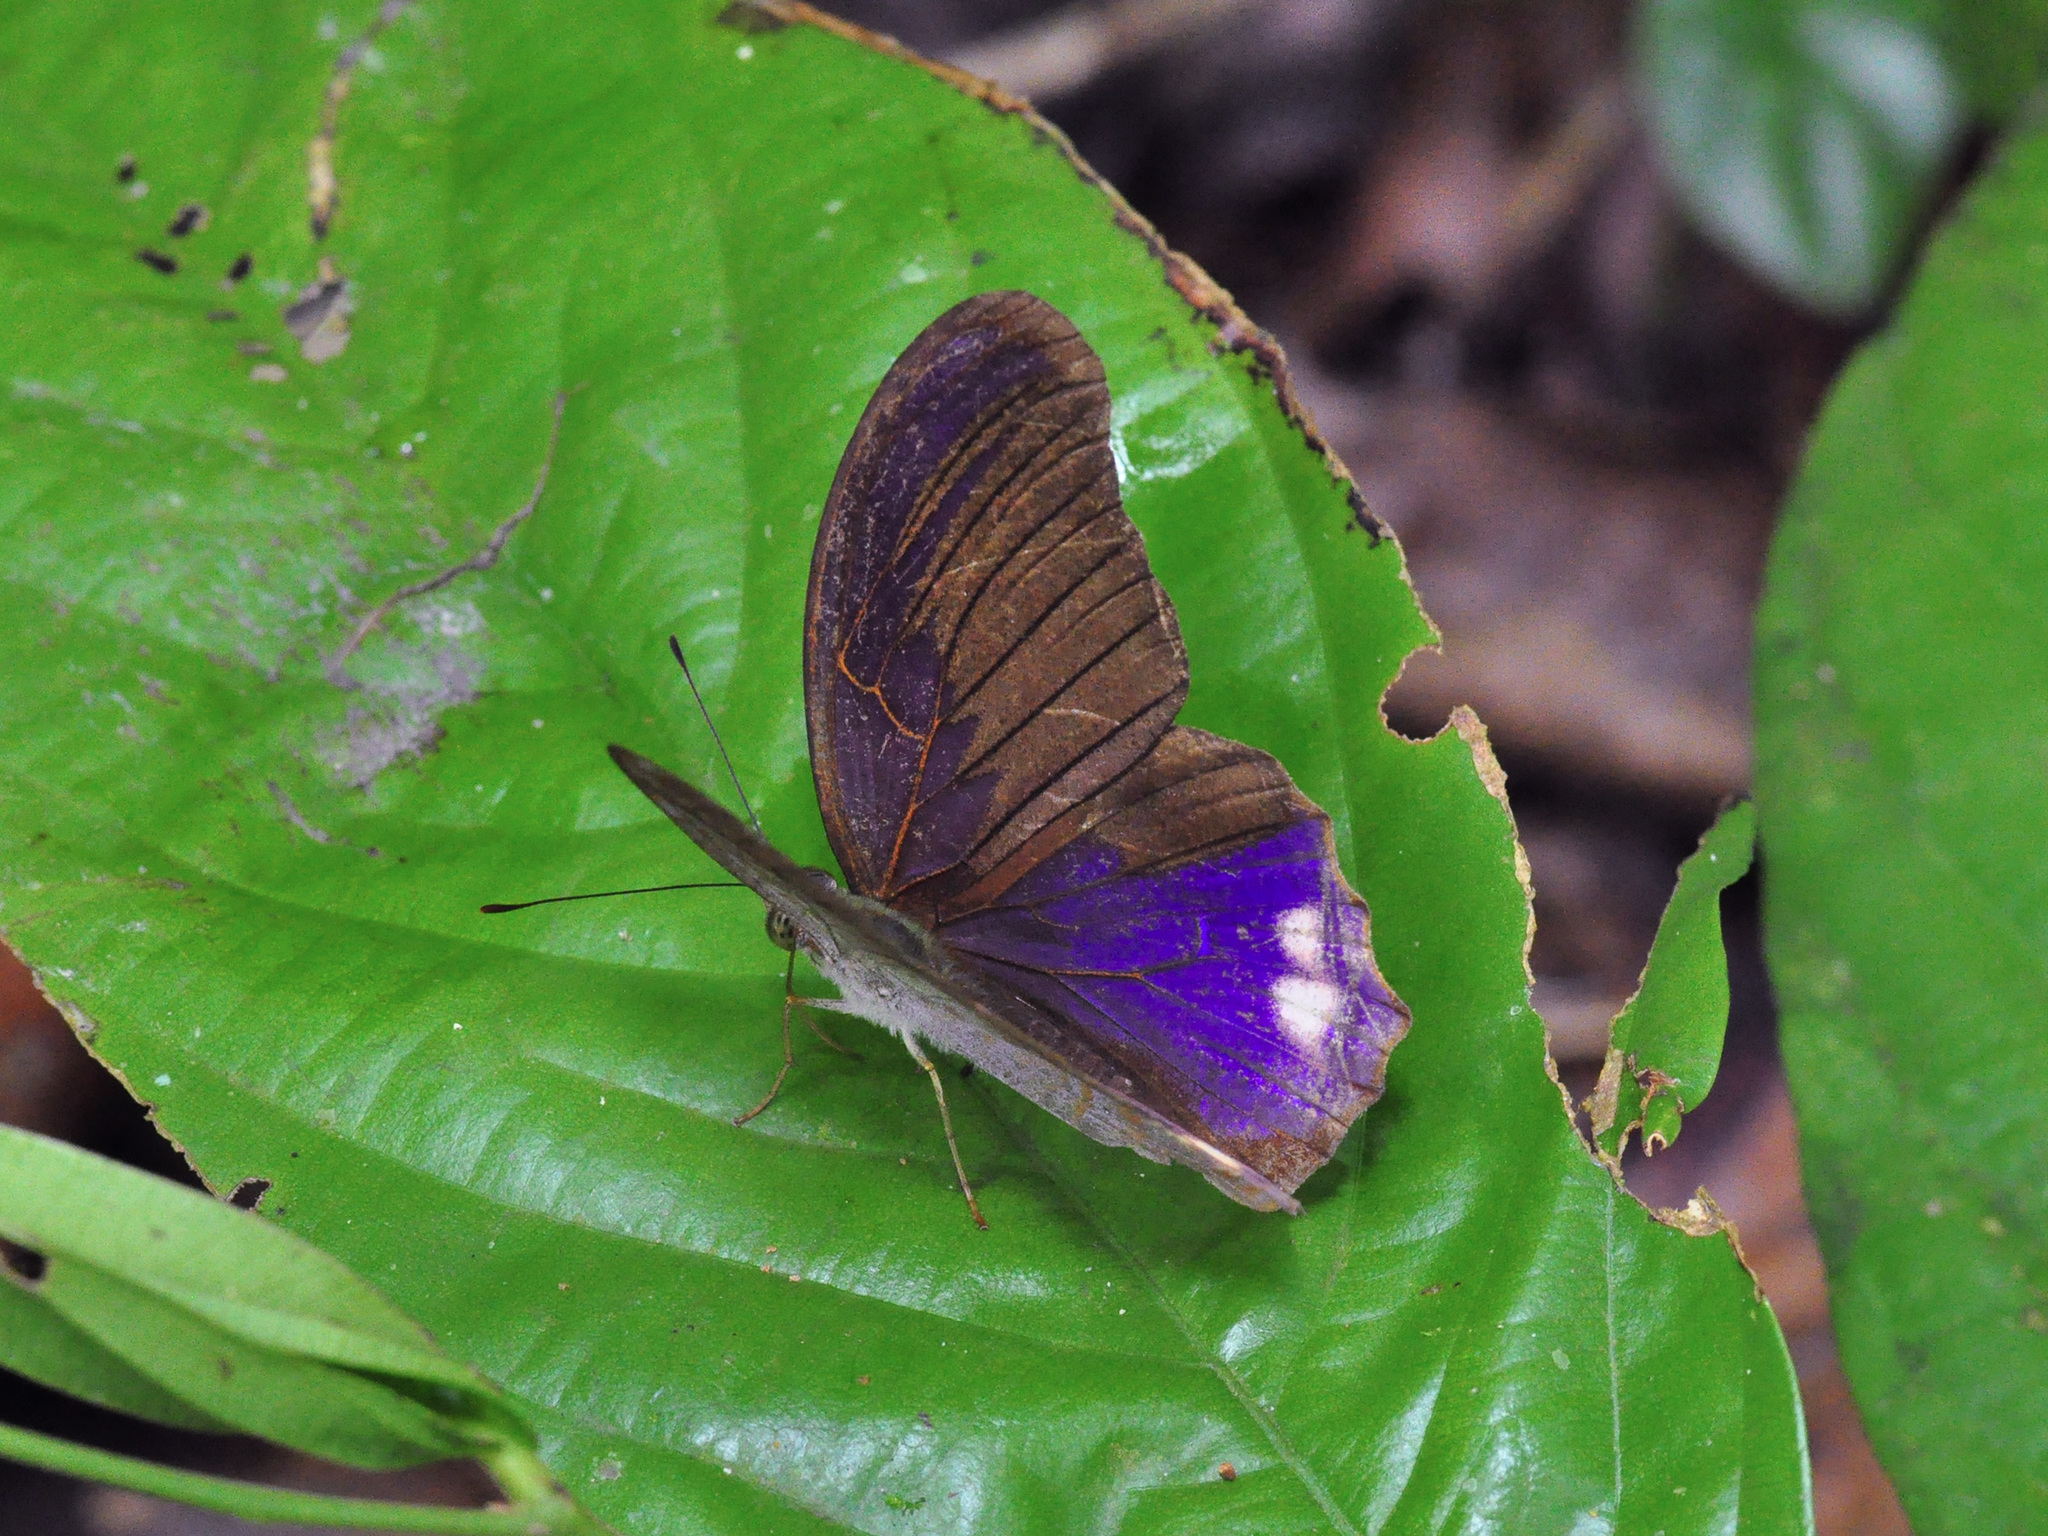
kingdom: Animalia
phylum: Arthropoda
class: Insecta
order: Lepidoptera
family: Nymphalidae
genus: Terinos
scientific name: Terinos terpander
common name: Royal assyrian
